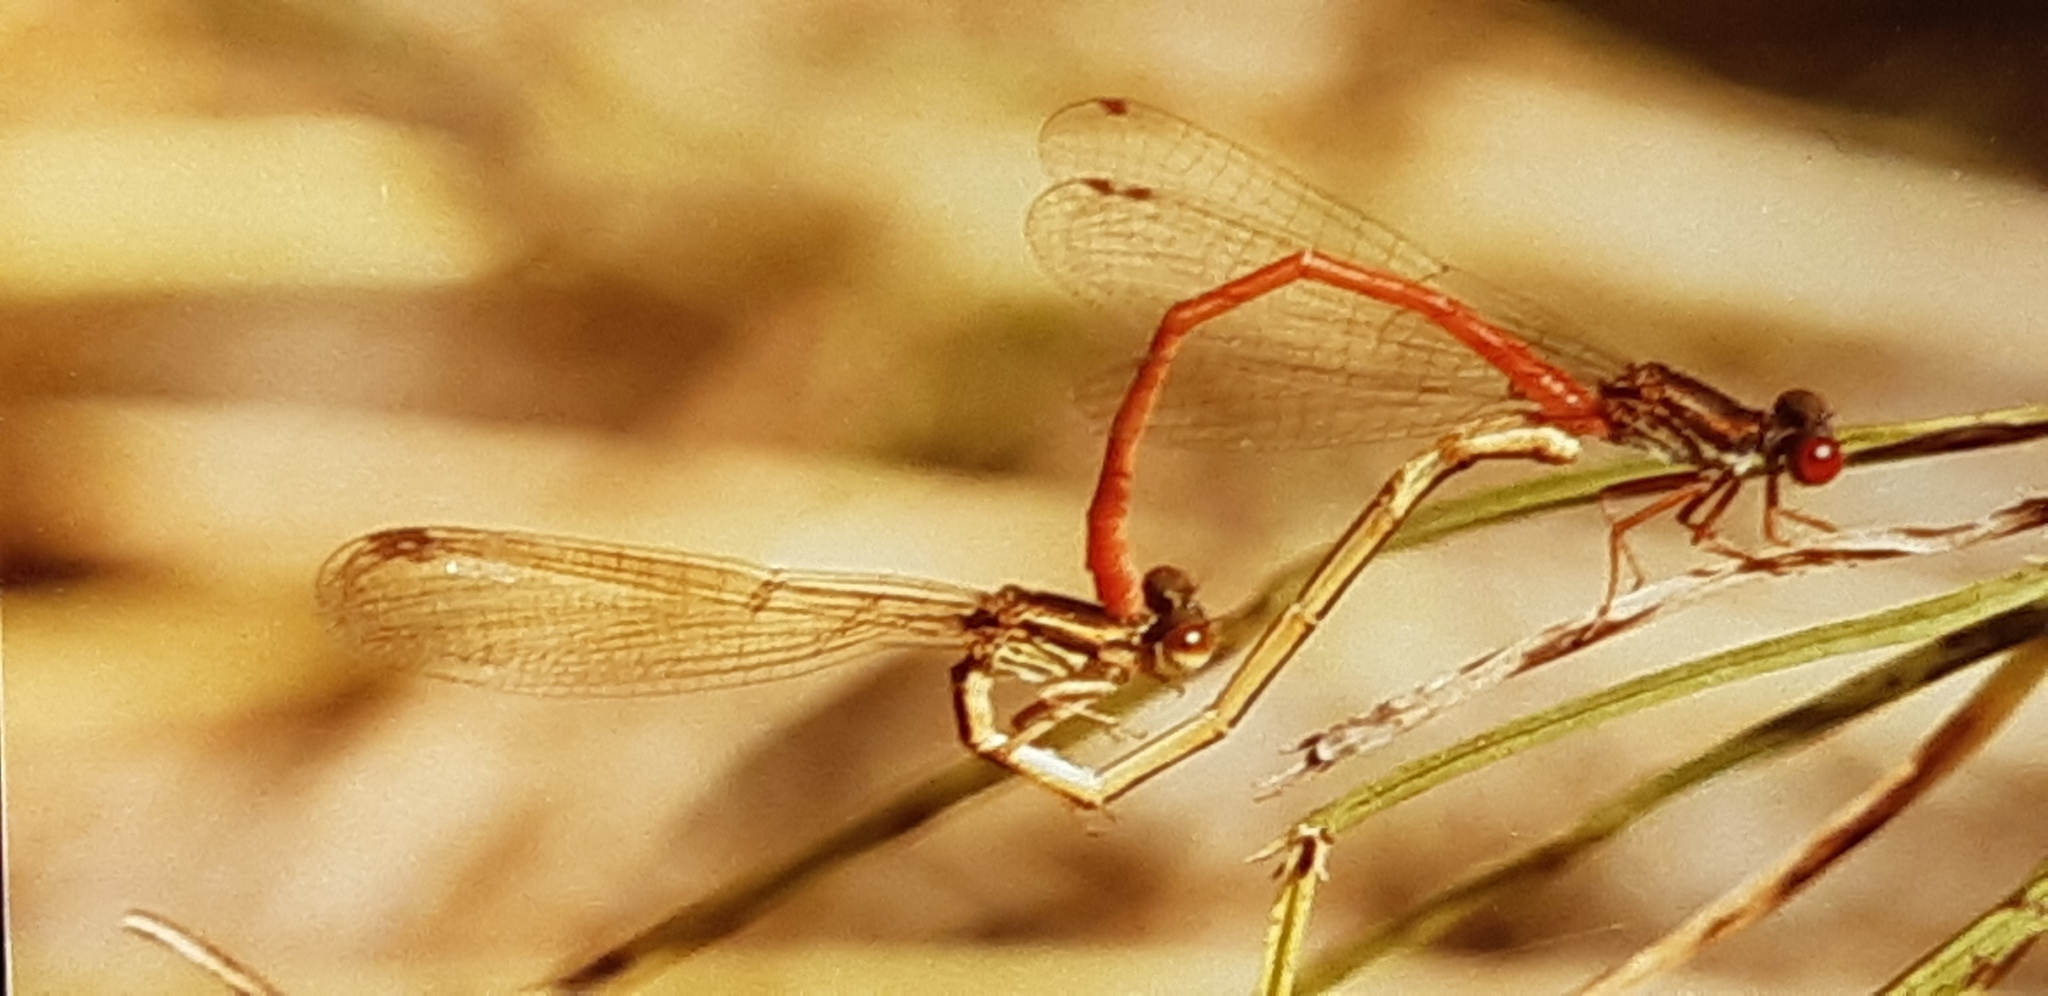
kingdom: Animalia
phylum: Arthropoda
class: Insecta
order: Odonata
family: Coenagrionidae
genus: Ceriagrion
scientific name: Ceriagrion tenellum
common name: Small red damselfly
